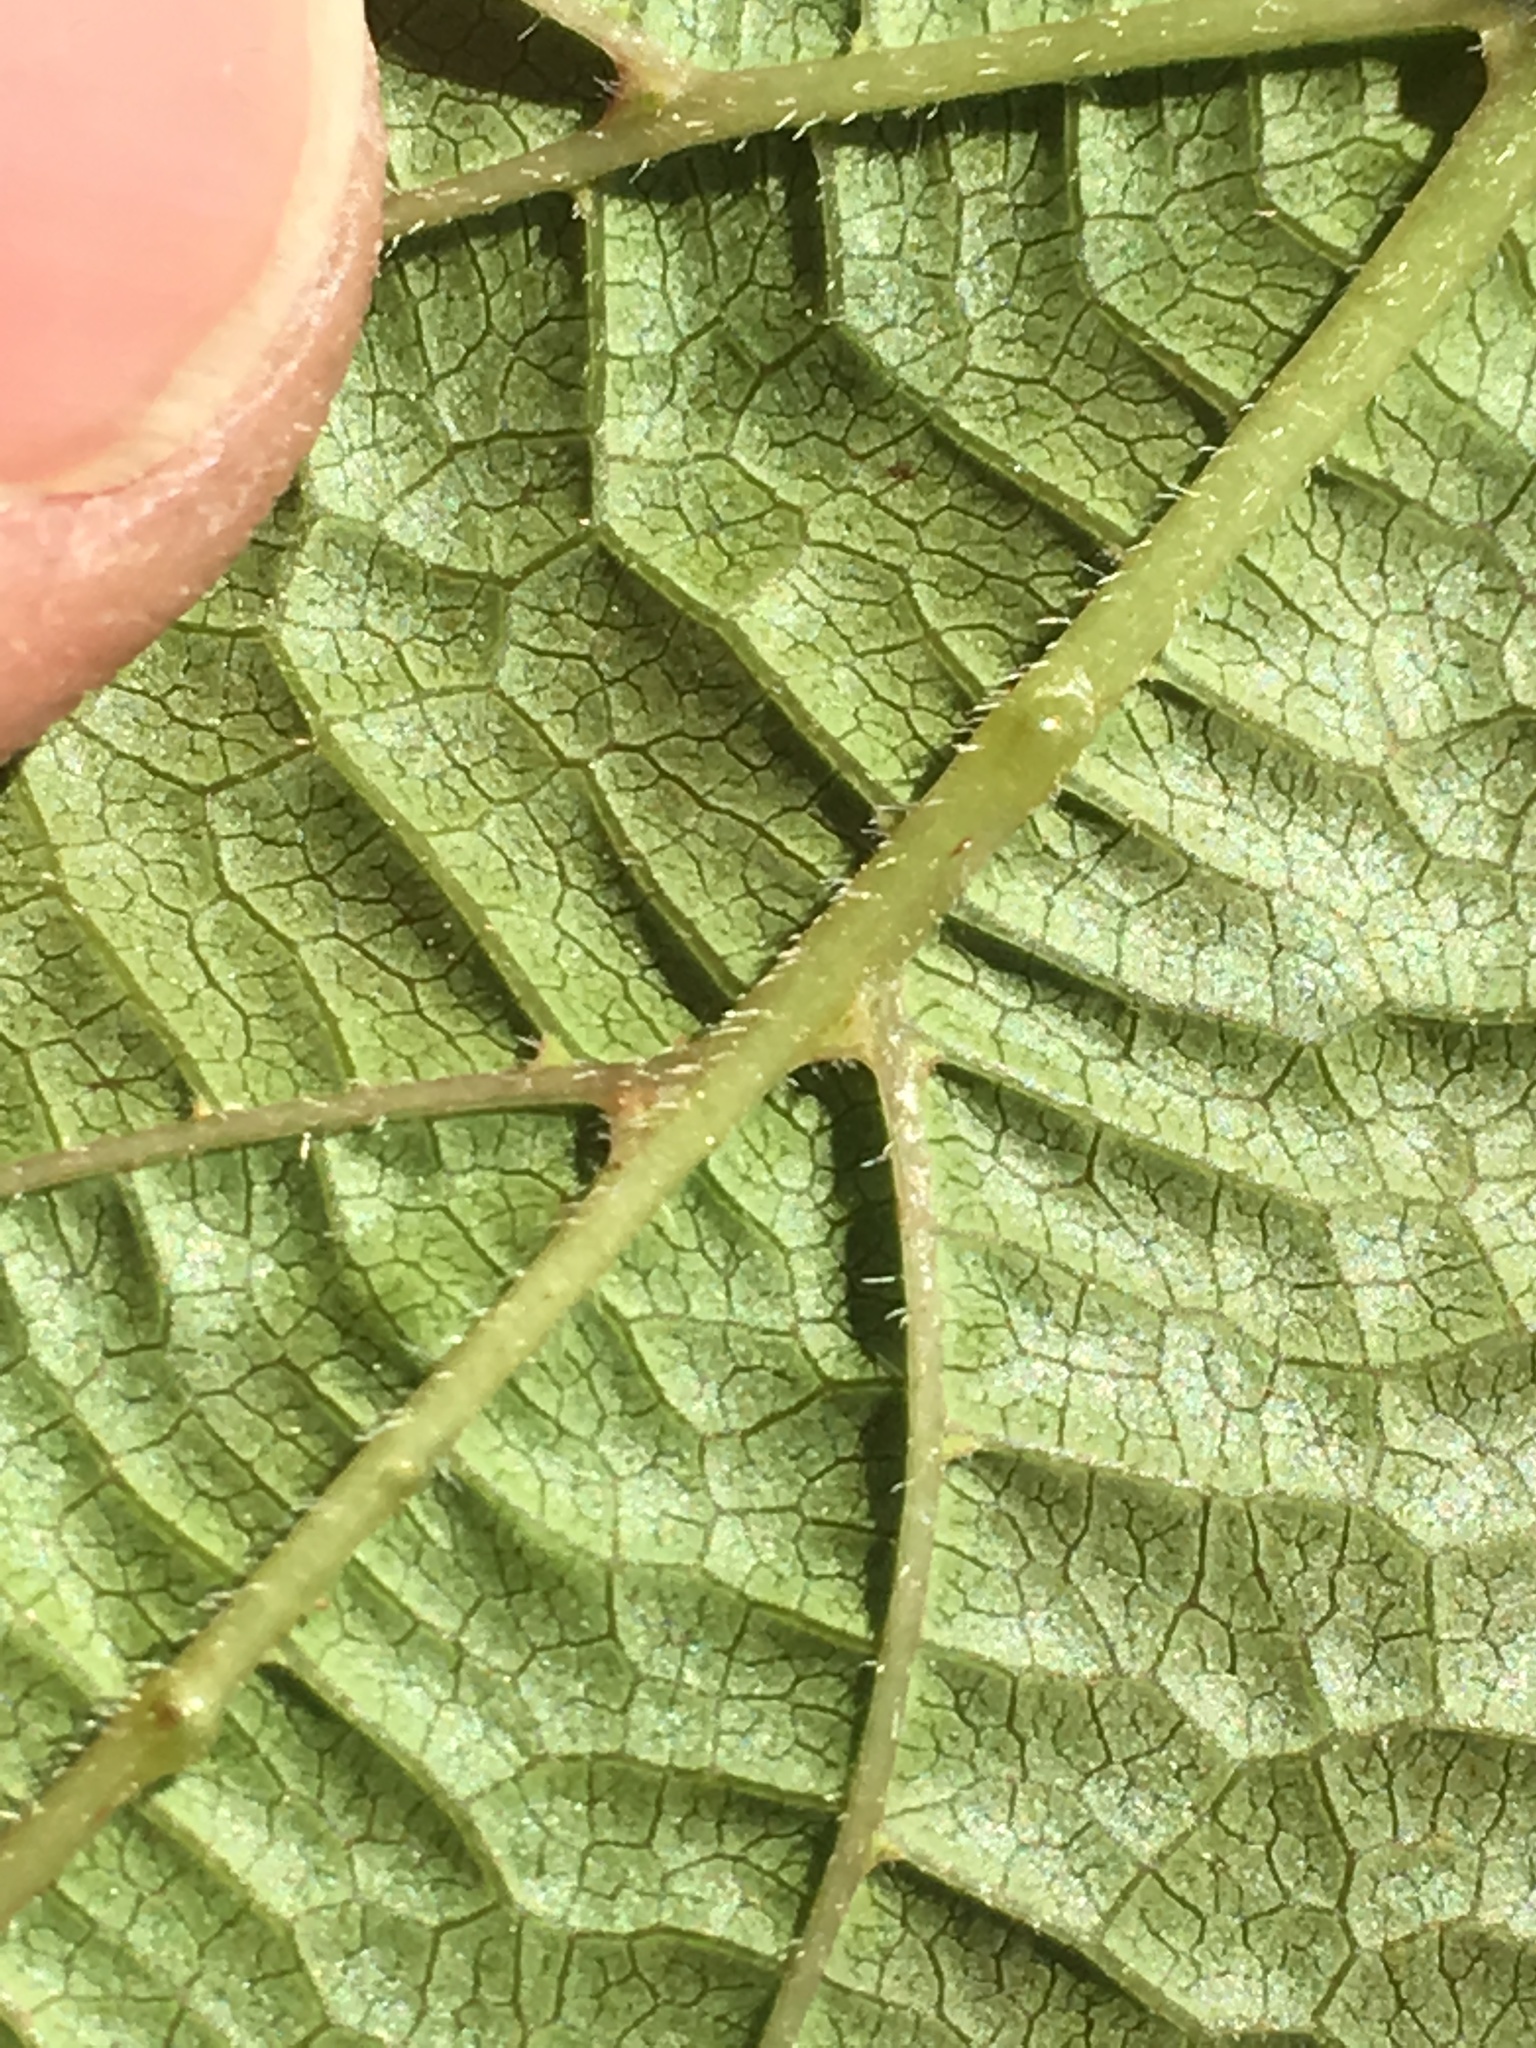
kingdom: Plantae
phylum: Tracheophyta
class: Magnoliopsida
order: Vitales
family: Vitaceae
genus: Ampelopsis
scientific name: Ampelopsis glandulosa
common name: Amur peppervine
